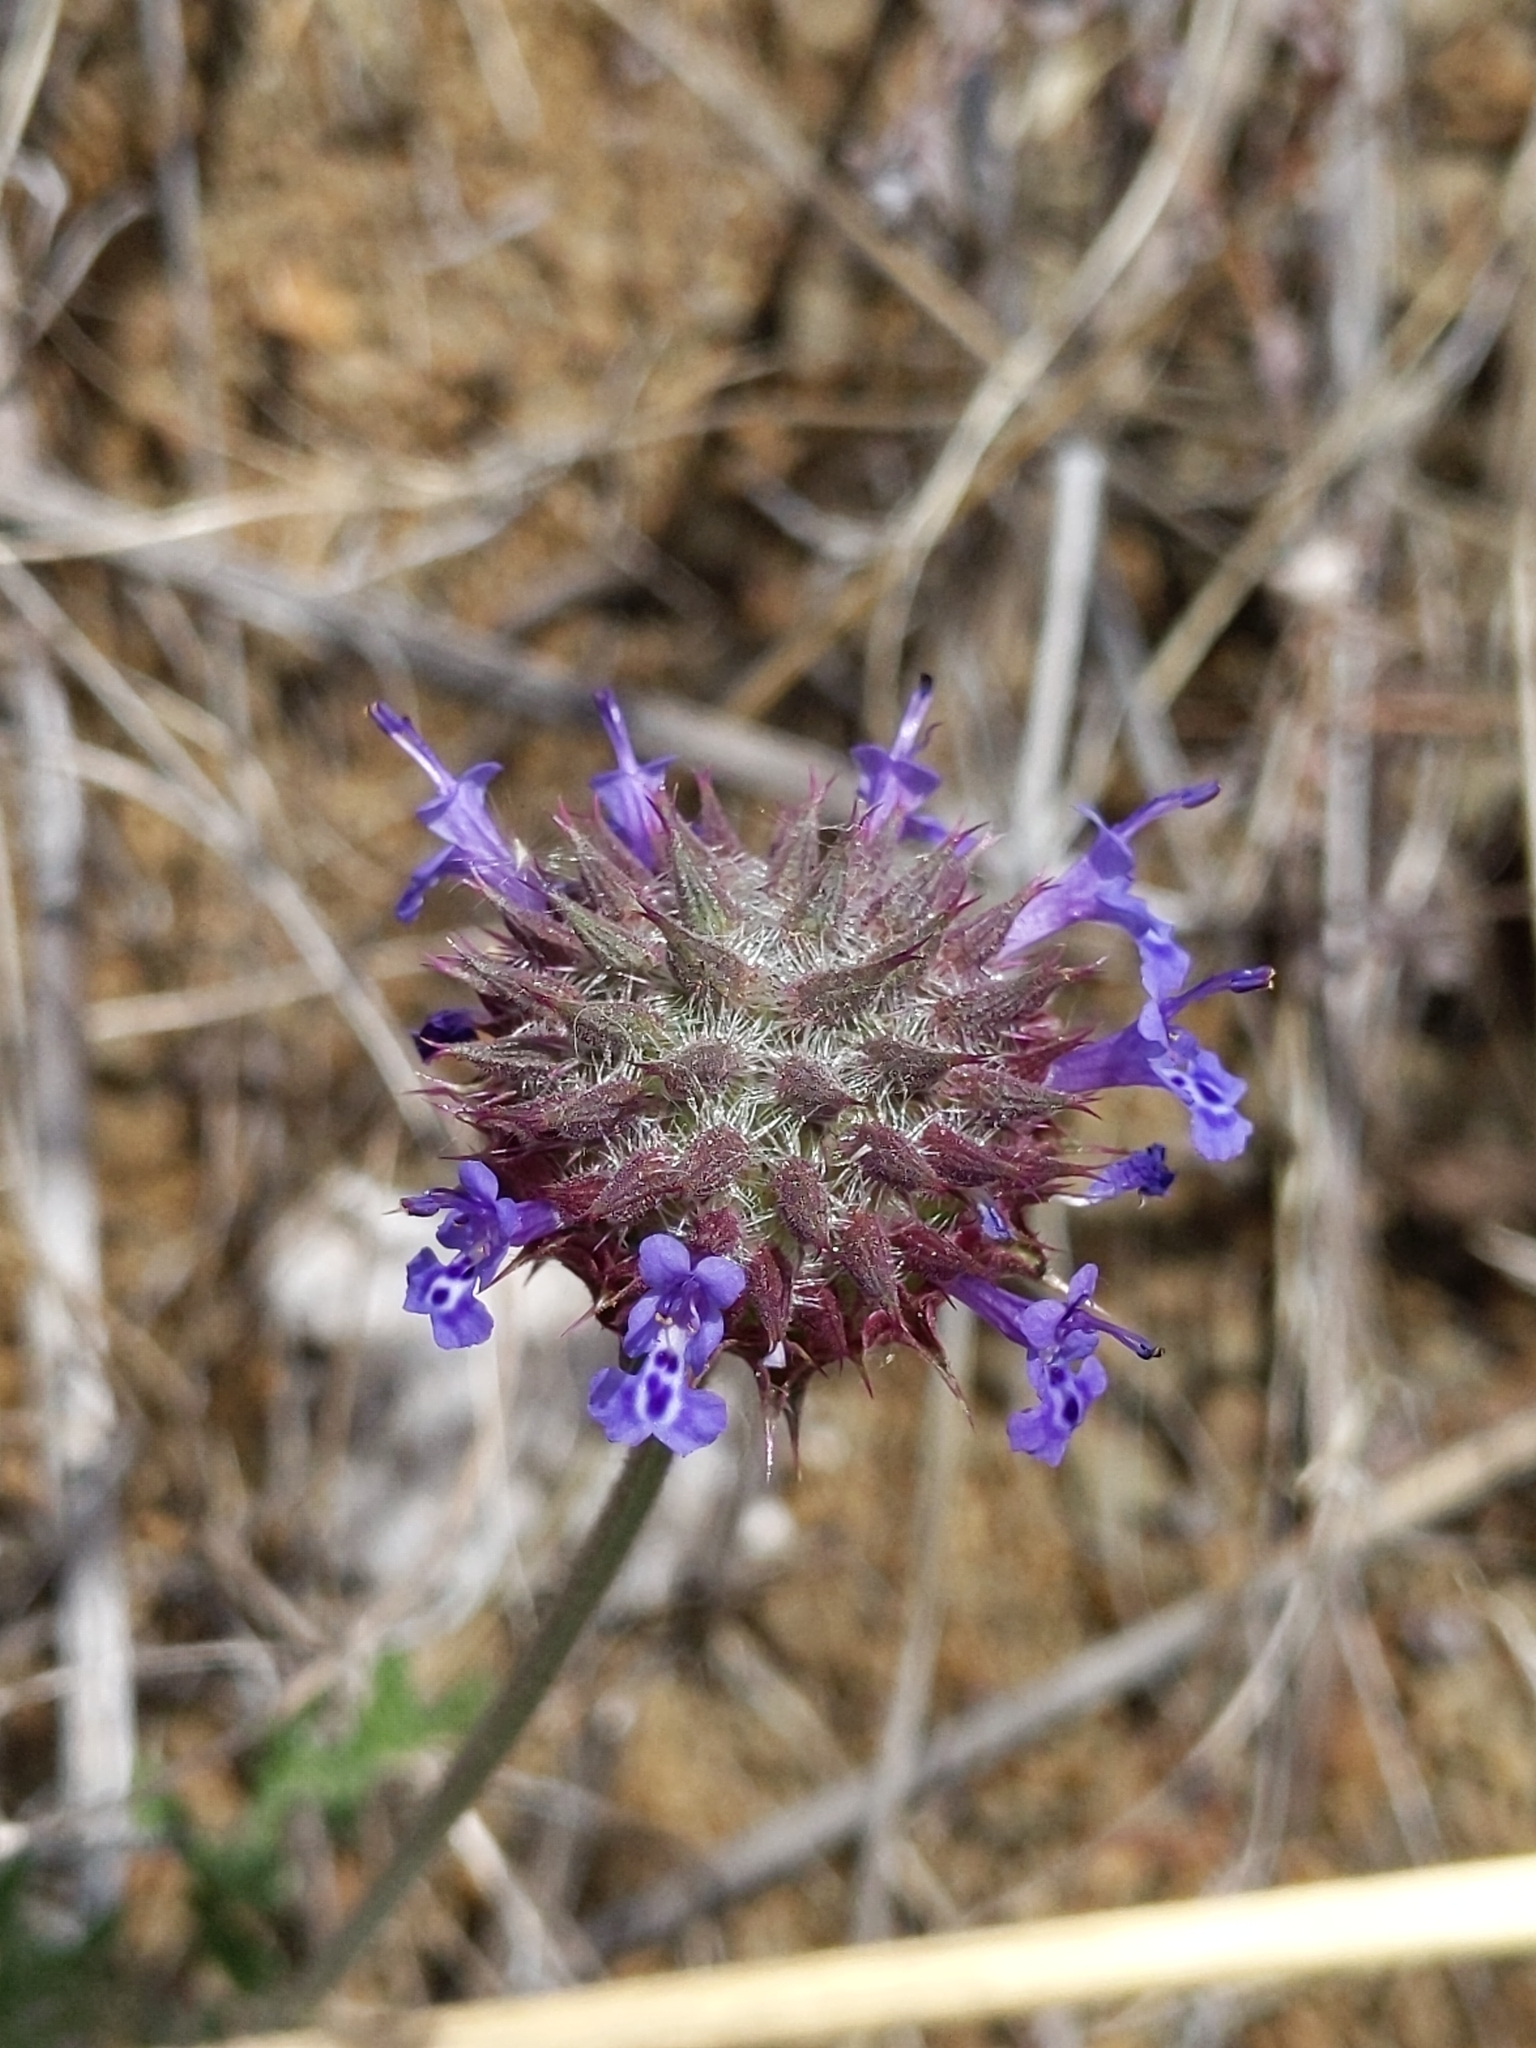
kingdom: Plantae
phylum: Tracheophyta
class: Magnoliopsida
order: Lamiales
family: Lamiaceae
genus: Salvia
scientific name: Salvia columbariae
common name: Chia
